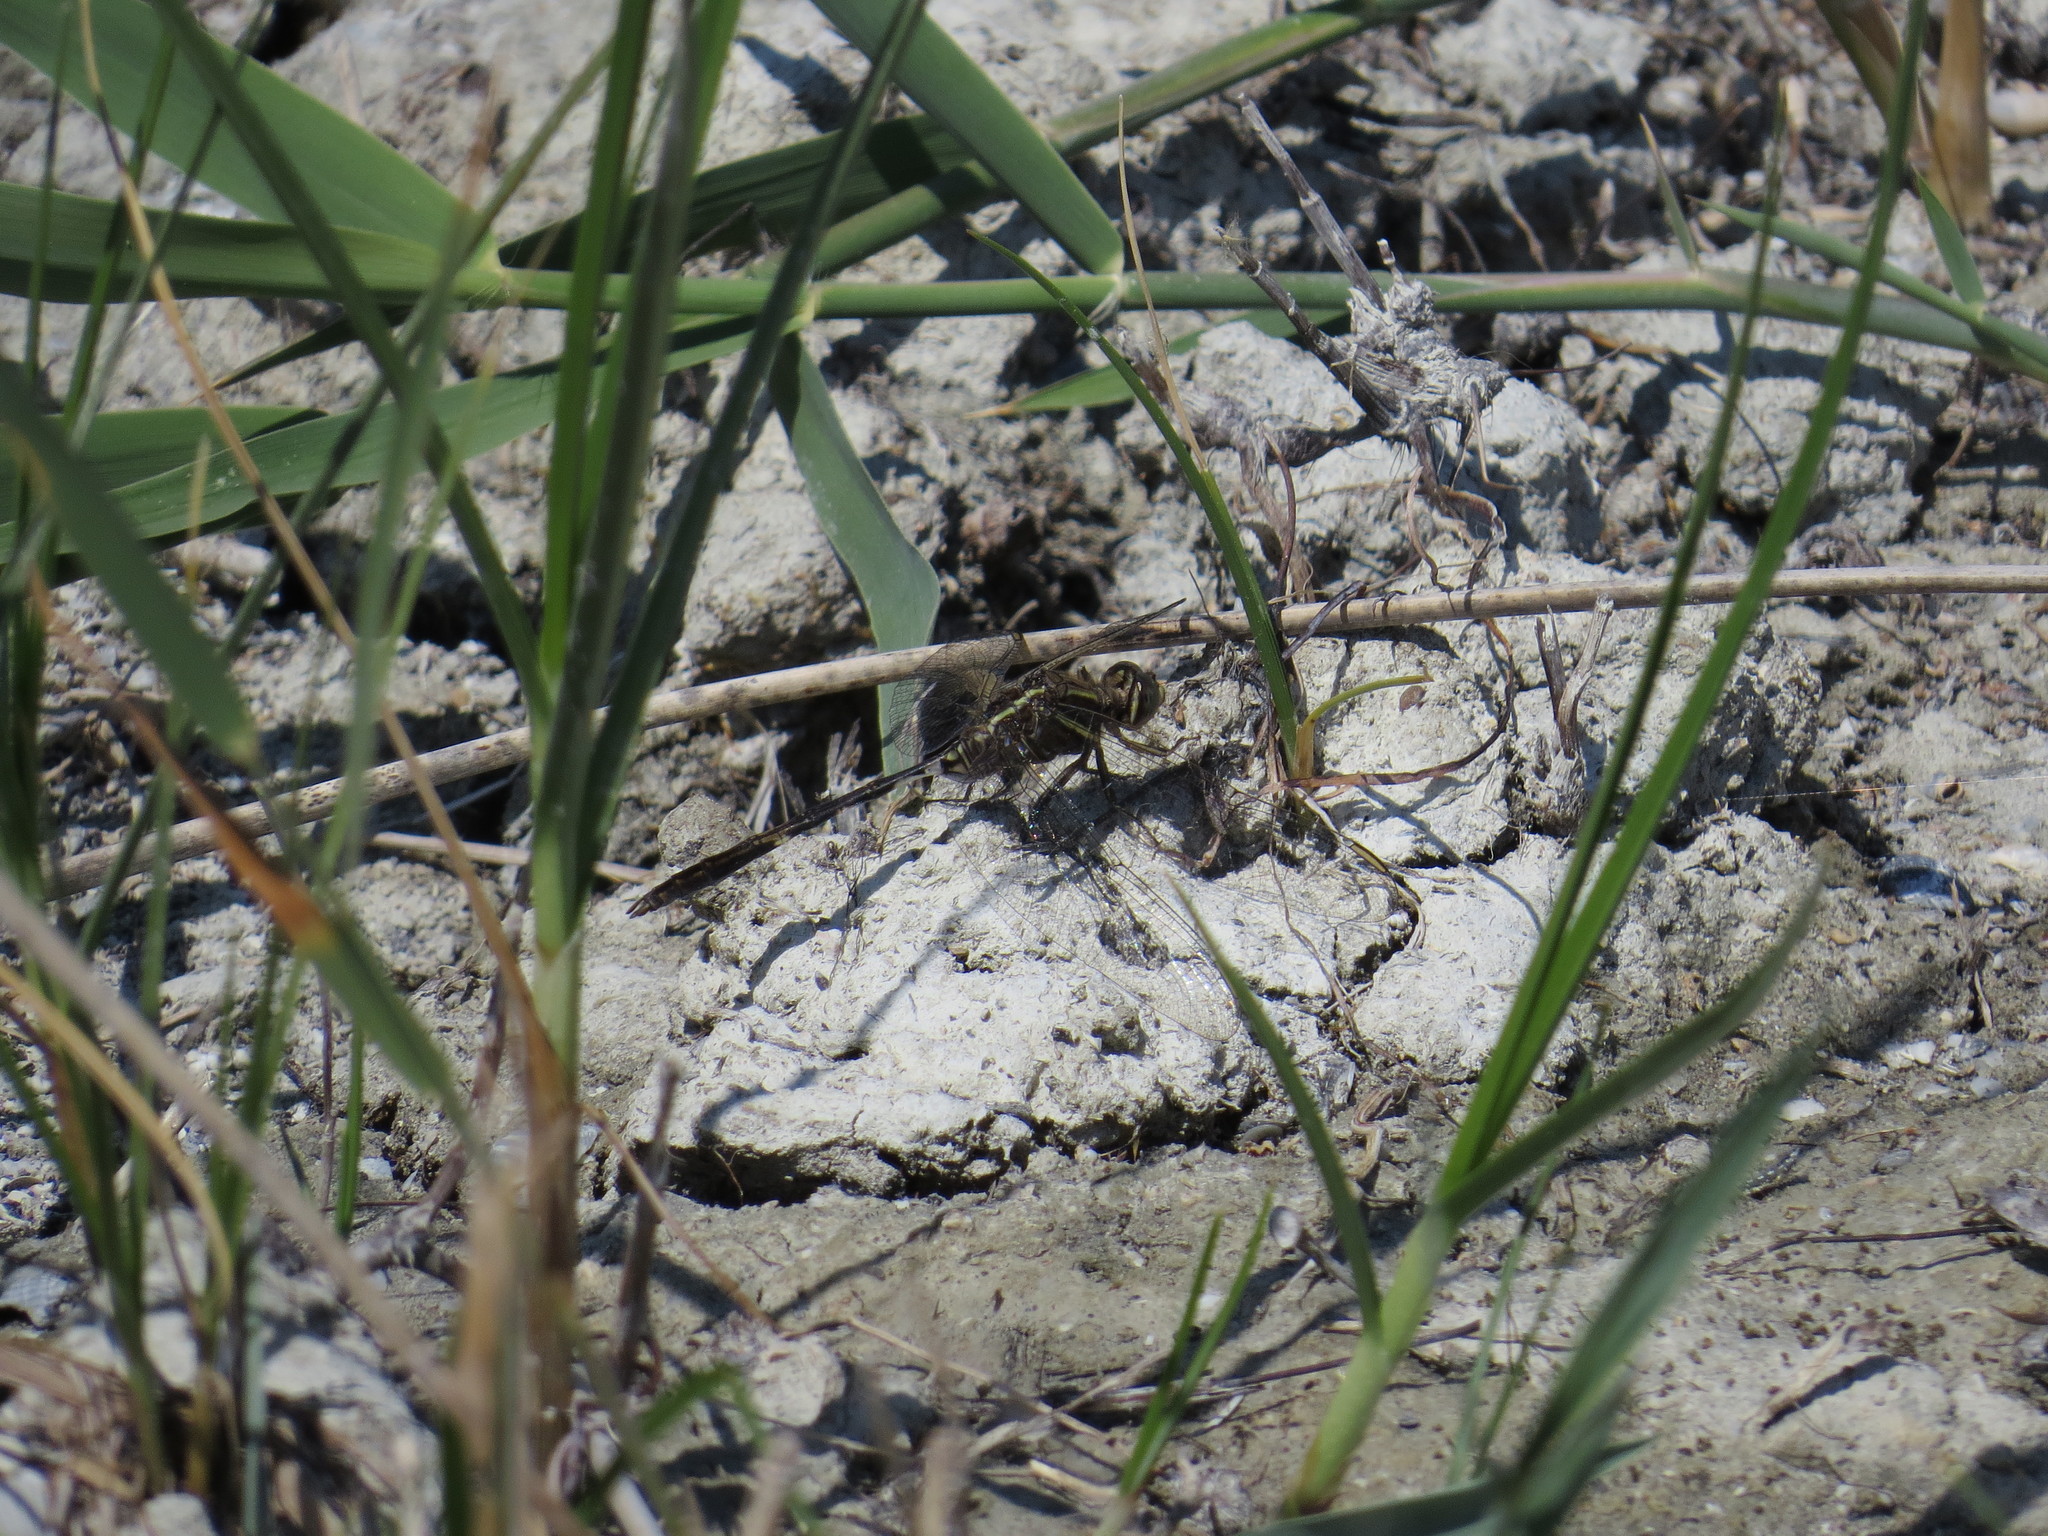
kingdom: Animalia
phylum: Arthropoda
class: Insecta
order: Odonata
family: Libellulidae
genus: Orthetrum
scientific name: Orthetrum sabina
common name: Slender skimmer
